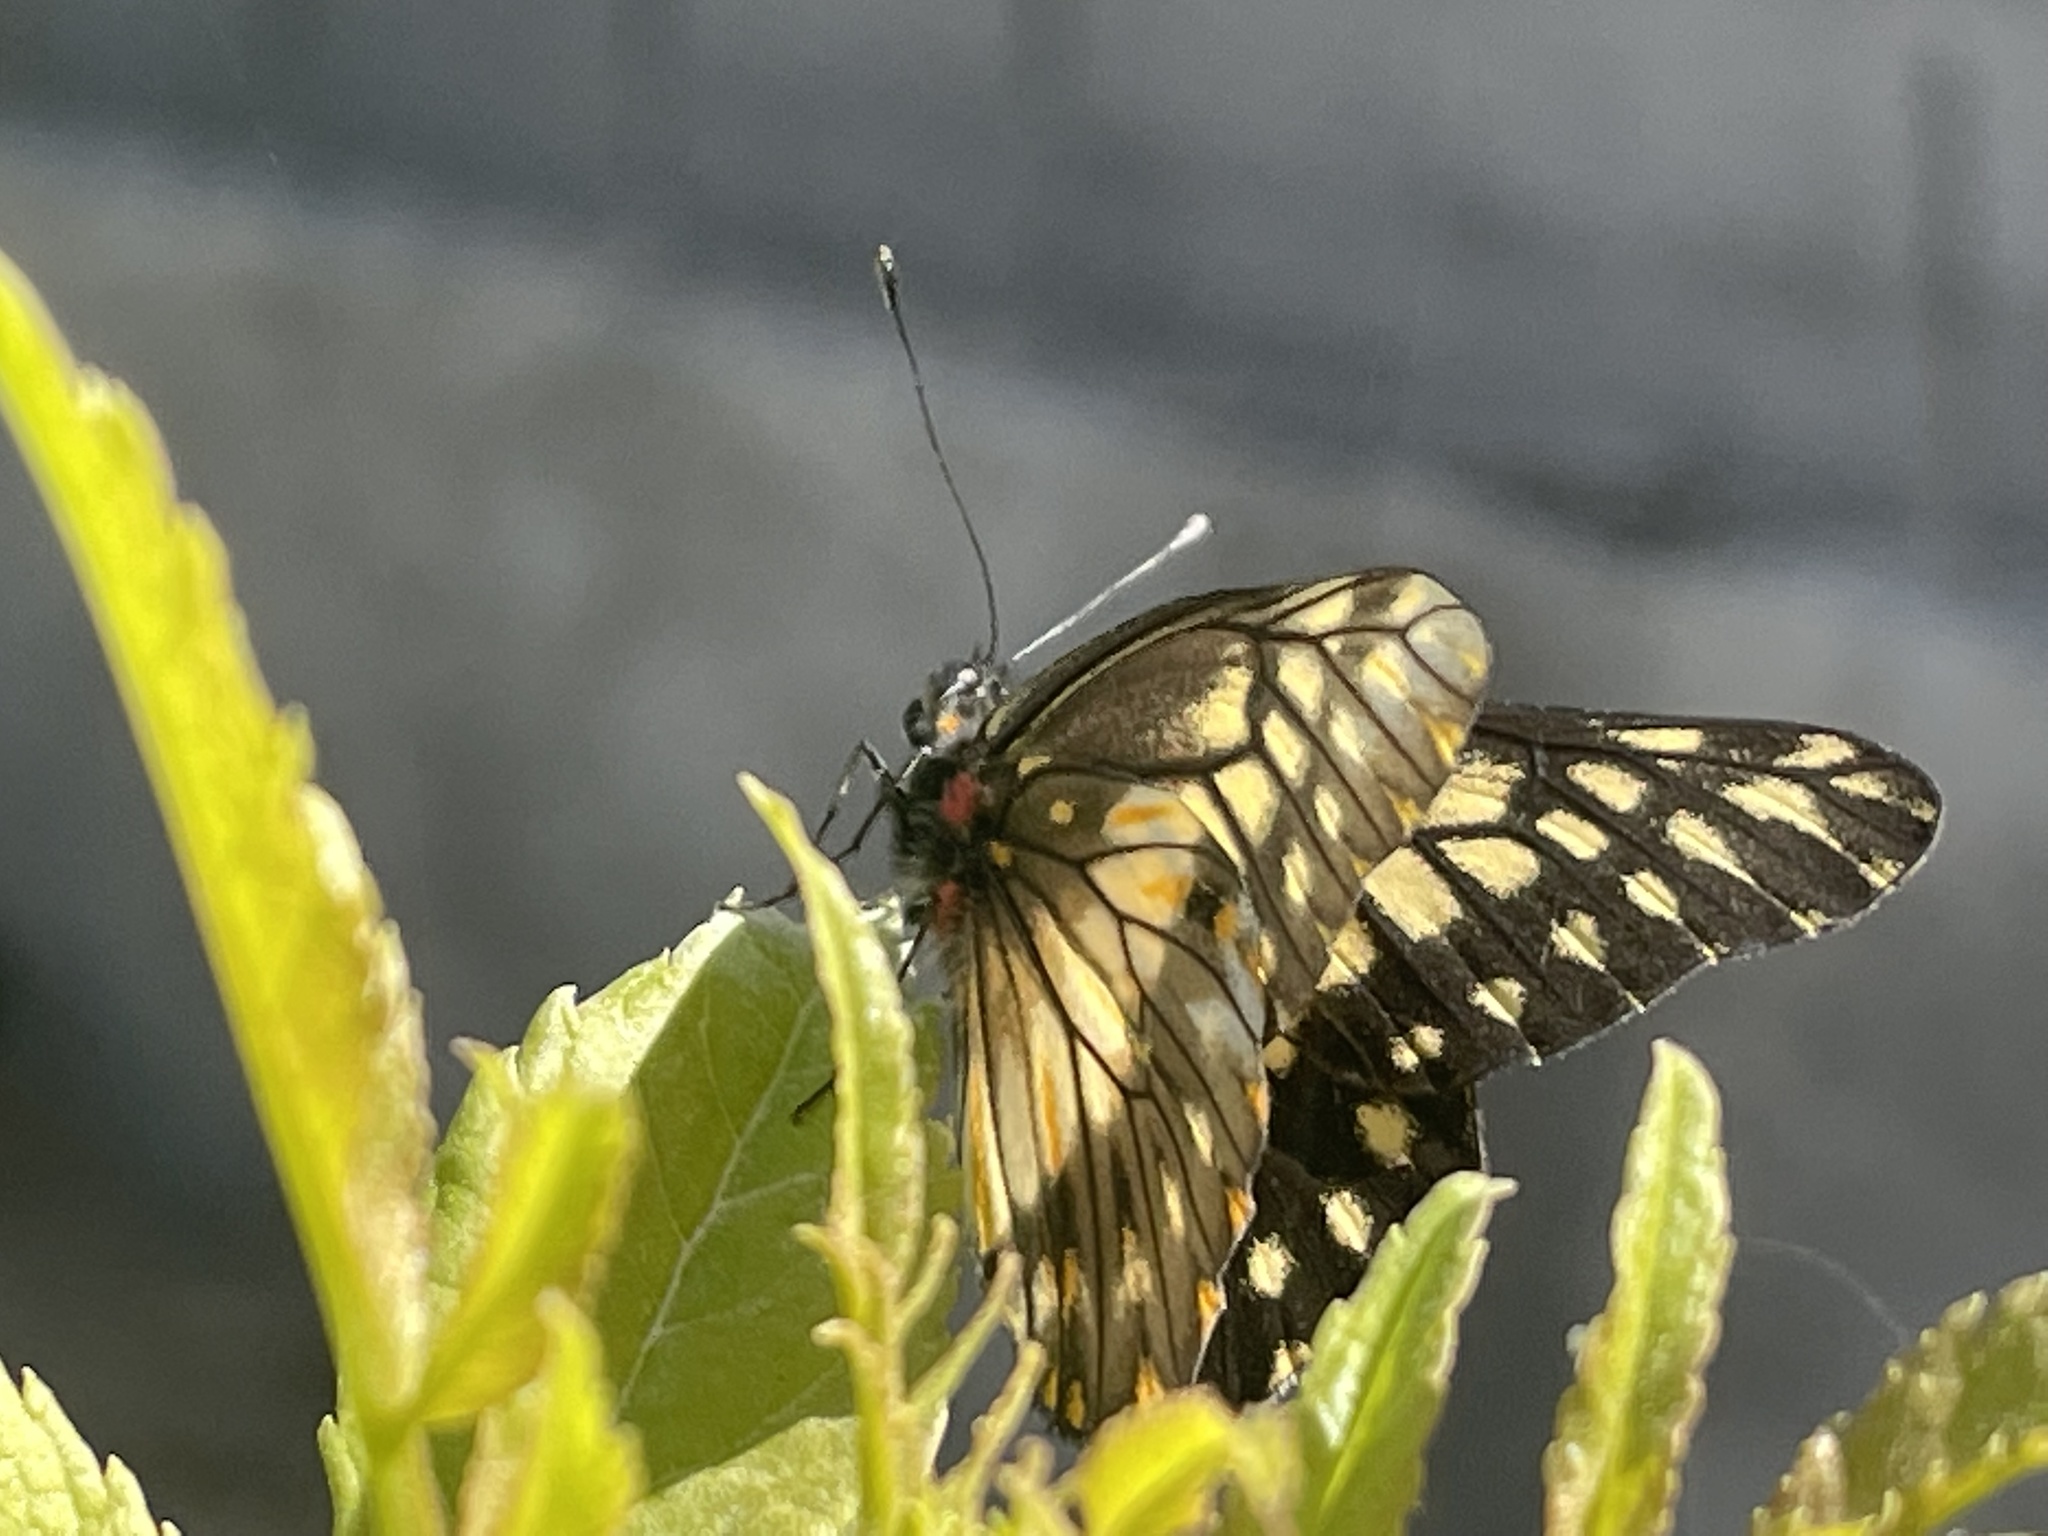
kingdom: Animalia
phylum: Arthropoda
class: Insecta
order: Lepidoptera
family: Pieridae
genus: Archonias
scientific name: Archonias nimbice
